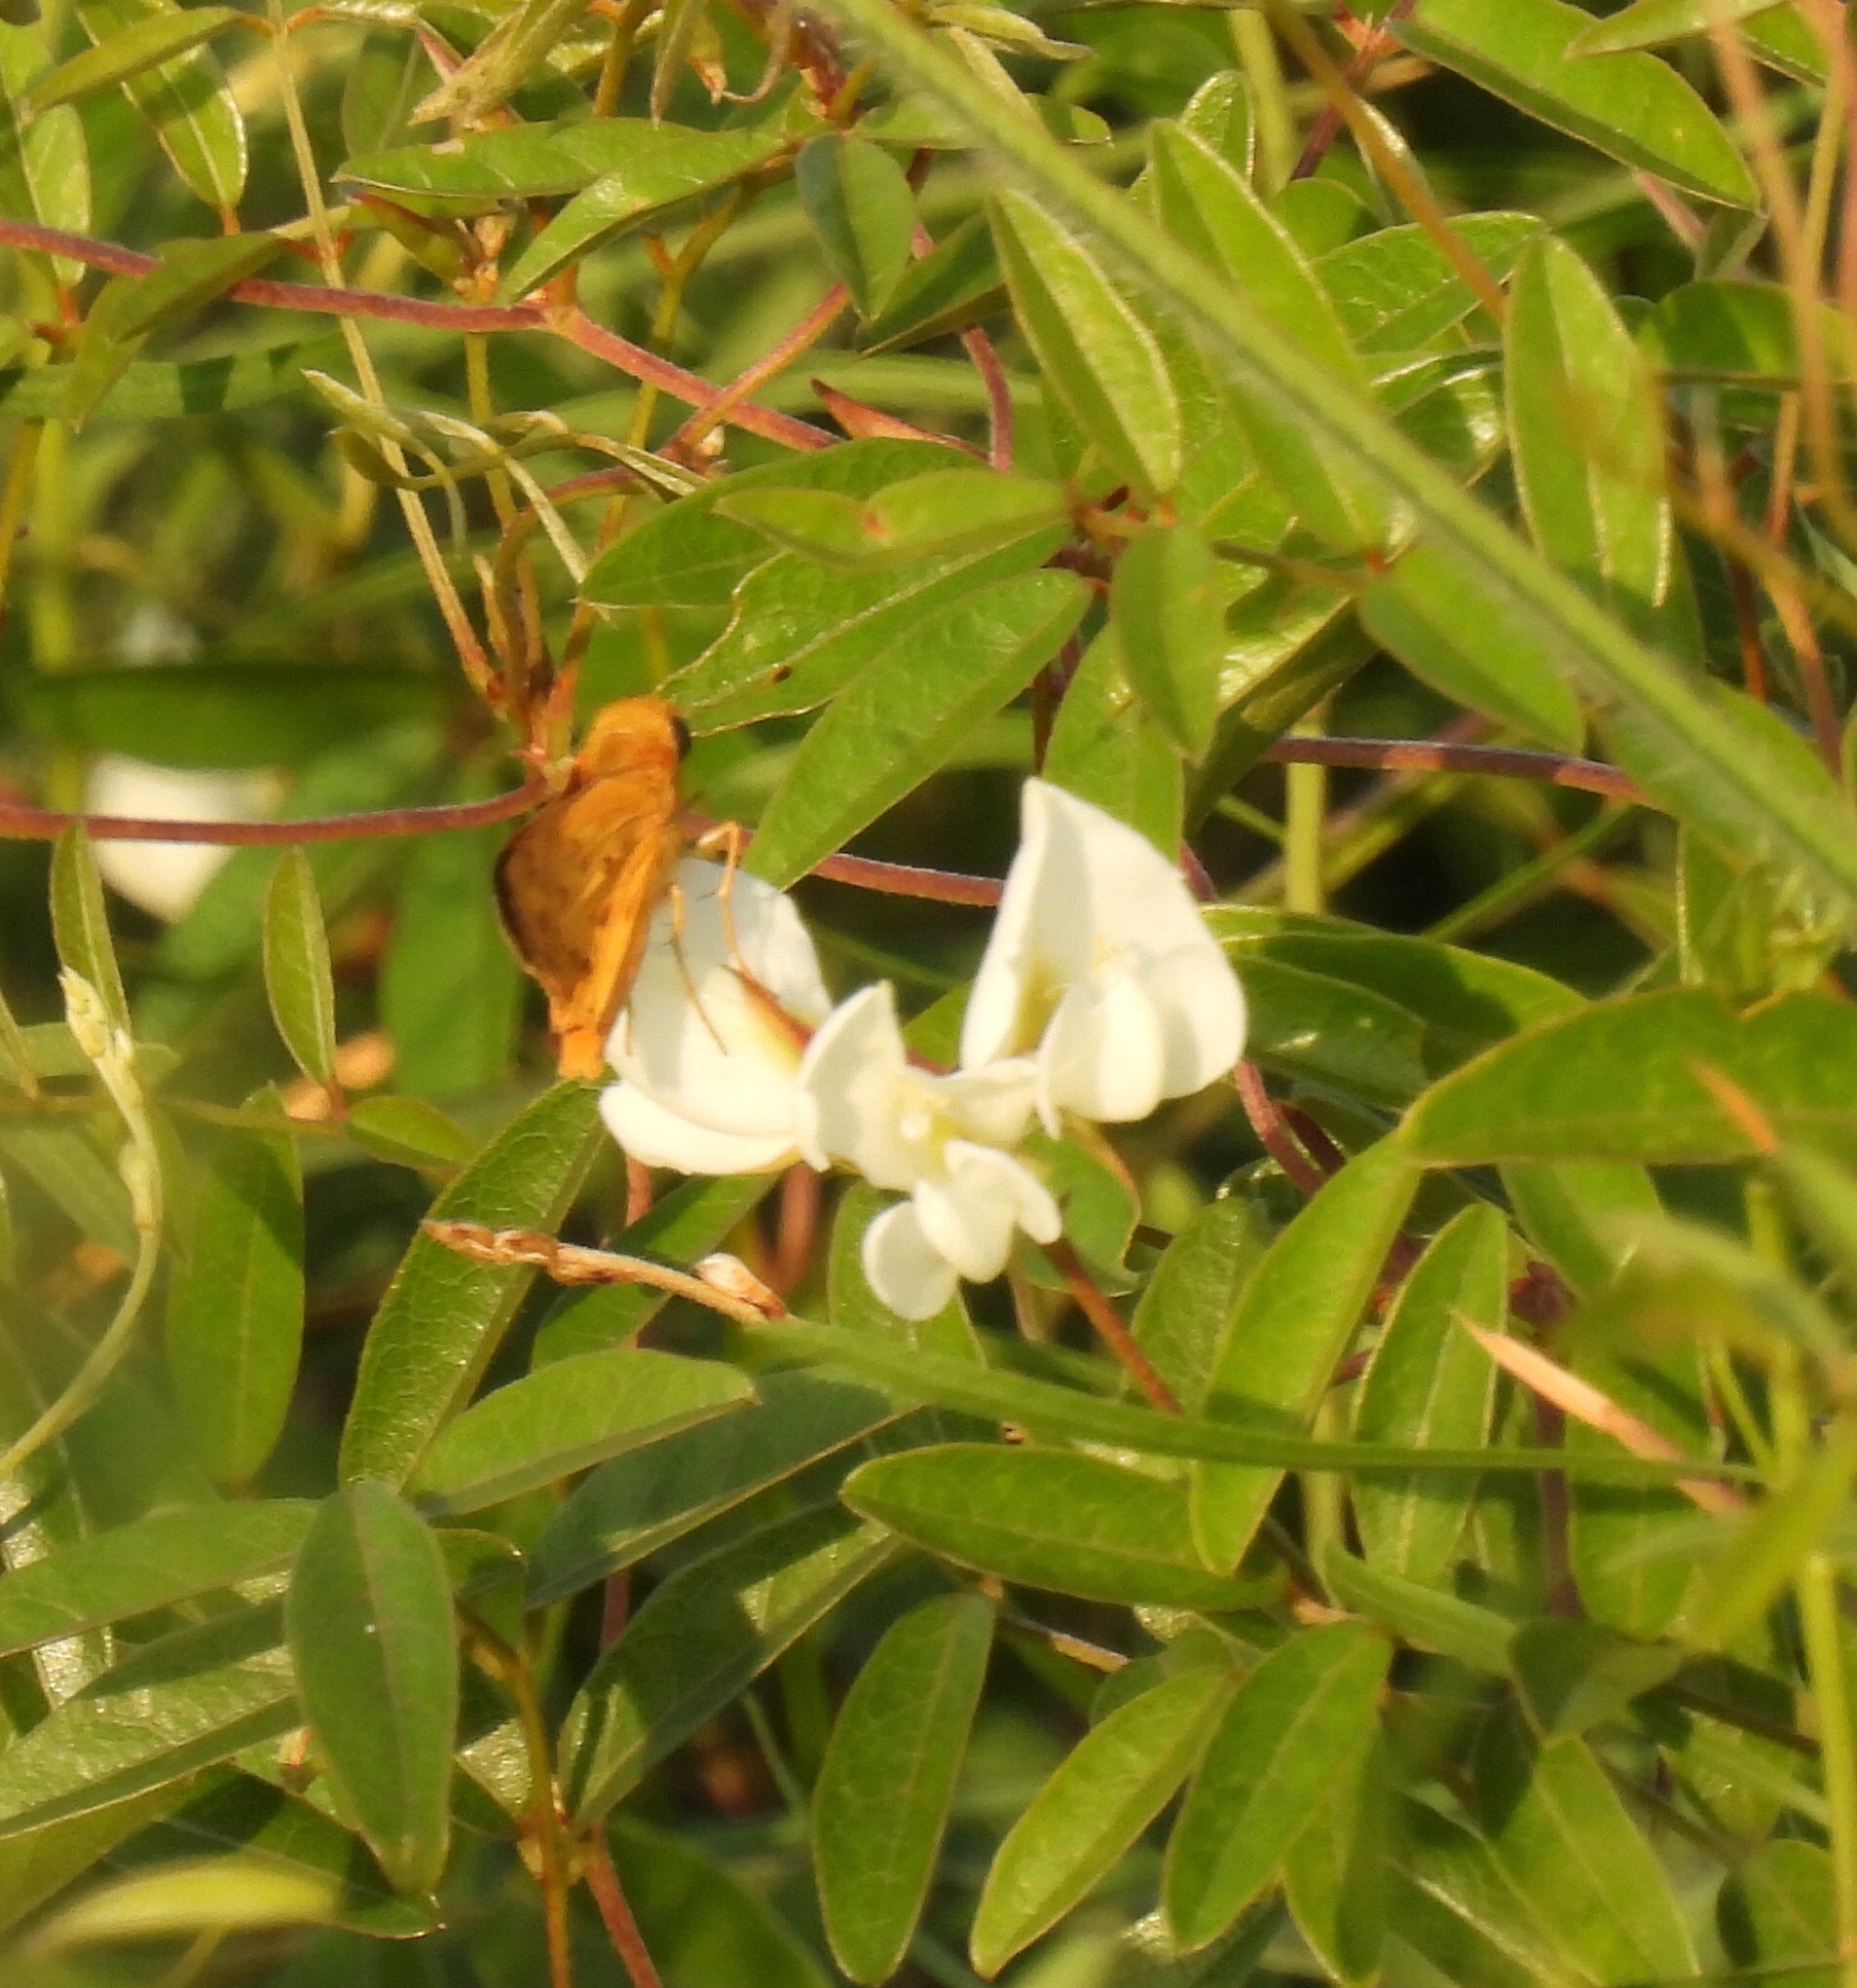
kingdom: Animalia
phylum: Arthropoda
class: Insecta
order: Lepidoptera
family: Hesperiidae
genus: Hylephila
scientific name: Hylephila phyleus
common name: Fiery skipper
